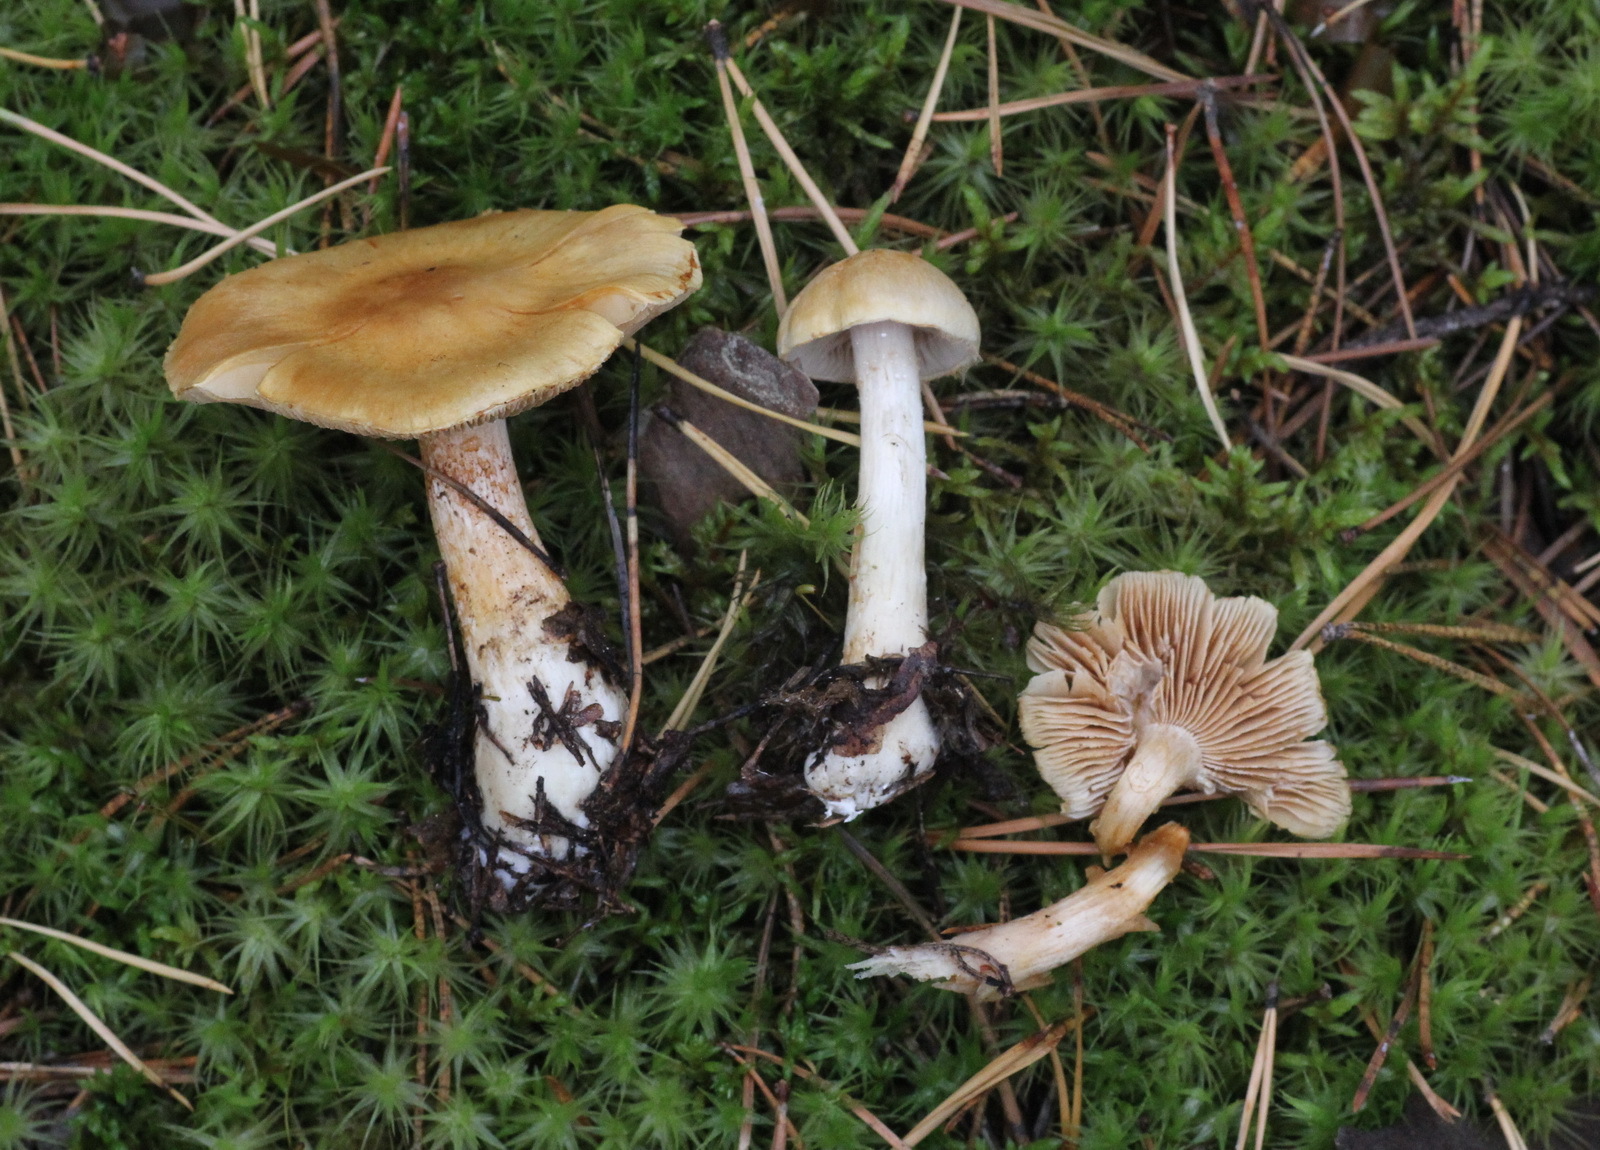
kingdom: Fungi
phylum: Basidiomycota
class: Agaricomycetes
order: Agaricales
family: Cortinariaceae
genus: Thaxterogaster
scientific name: Thaxterogaster pinophilus
